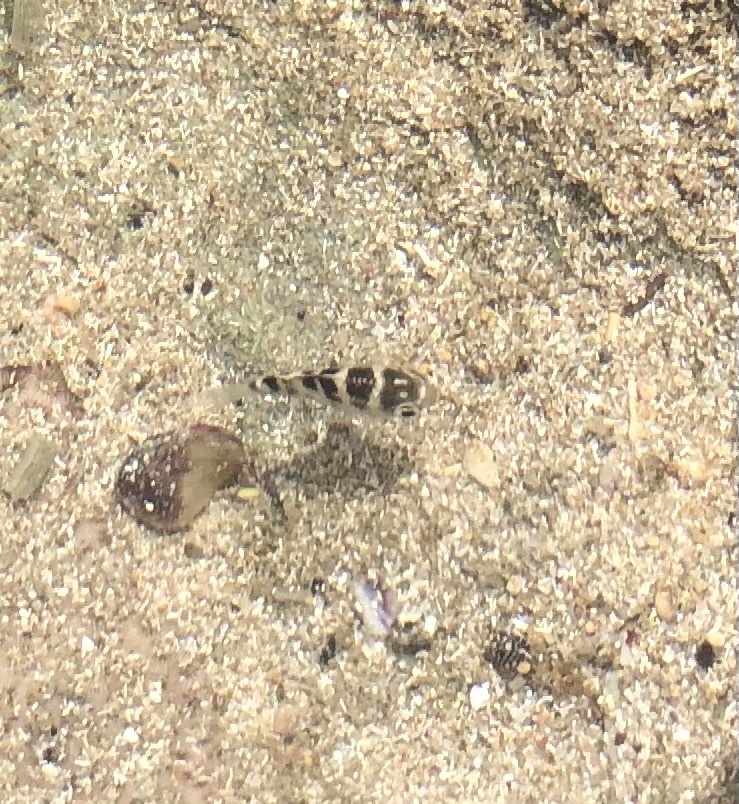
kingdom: Animalia
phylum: Chordata
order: Perciformes
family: Pomacentridae
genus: Abudefduf
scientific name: Abudefduf taurus
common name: Night sergeant
